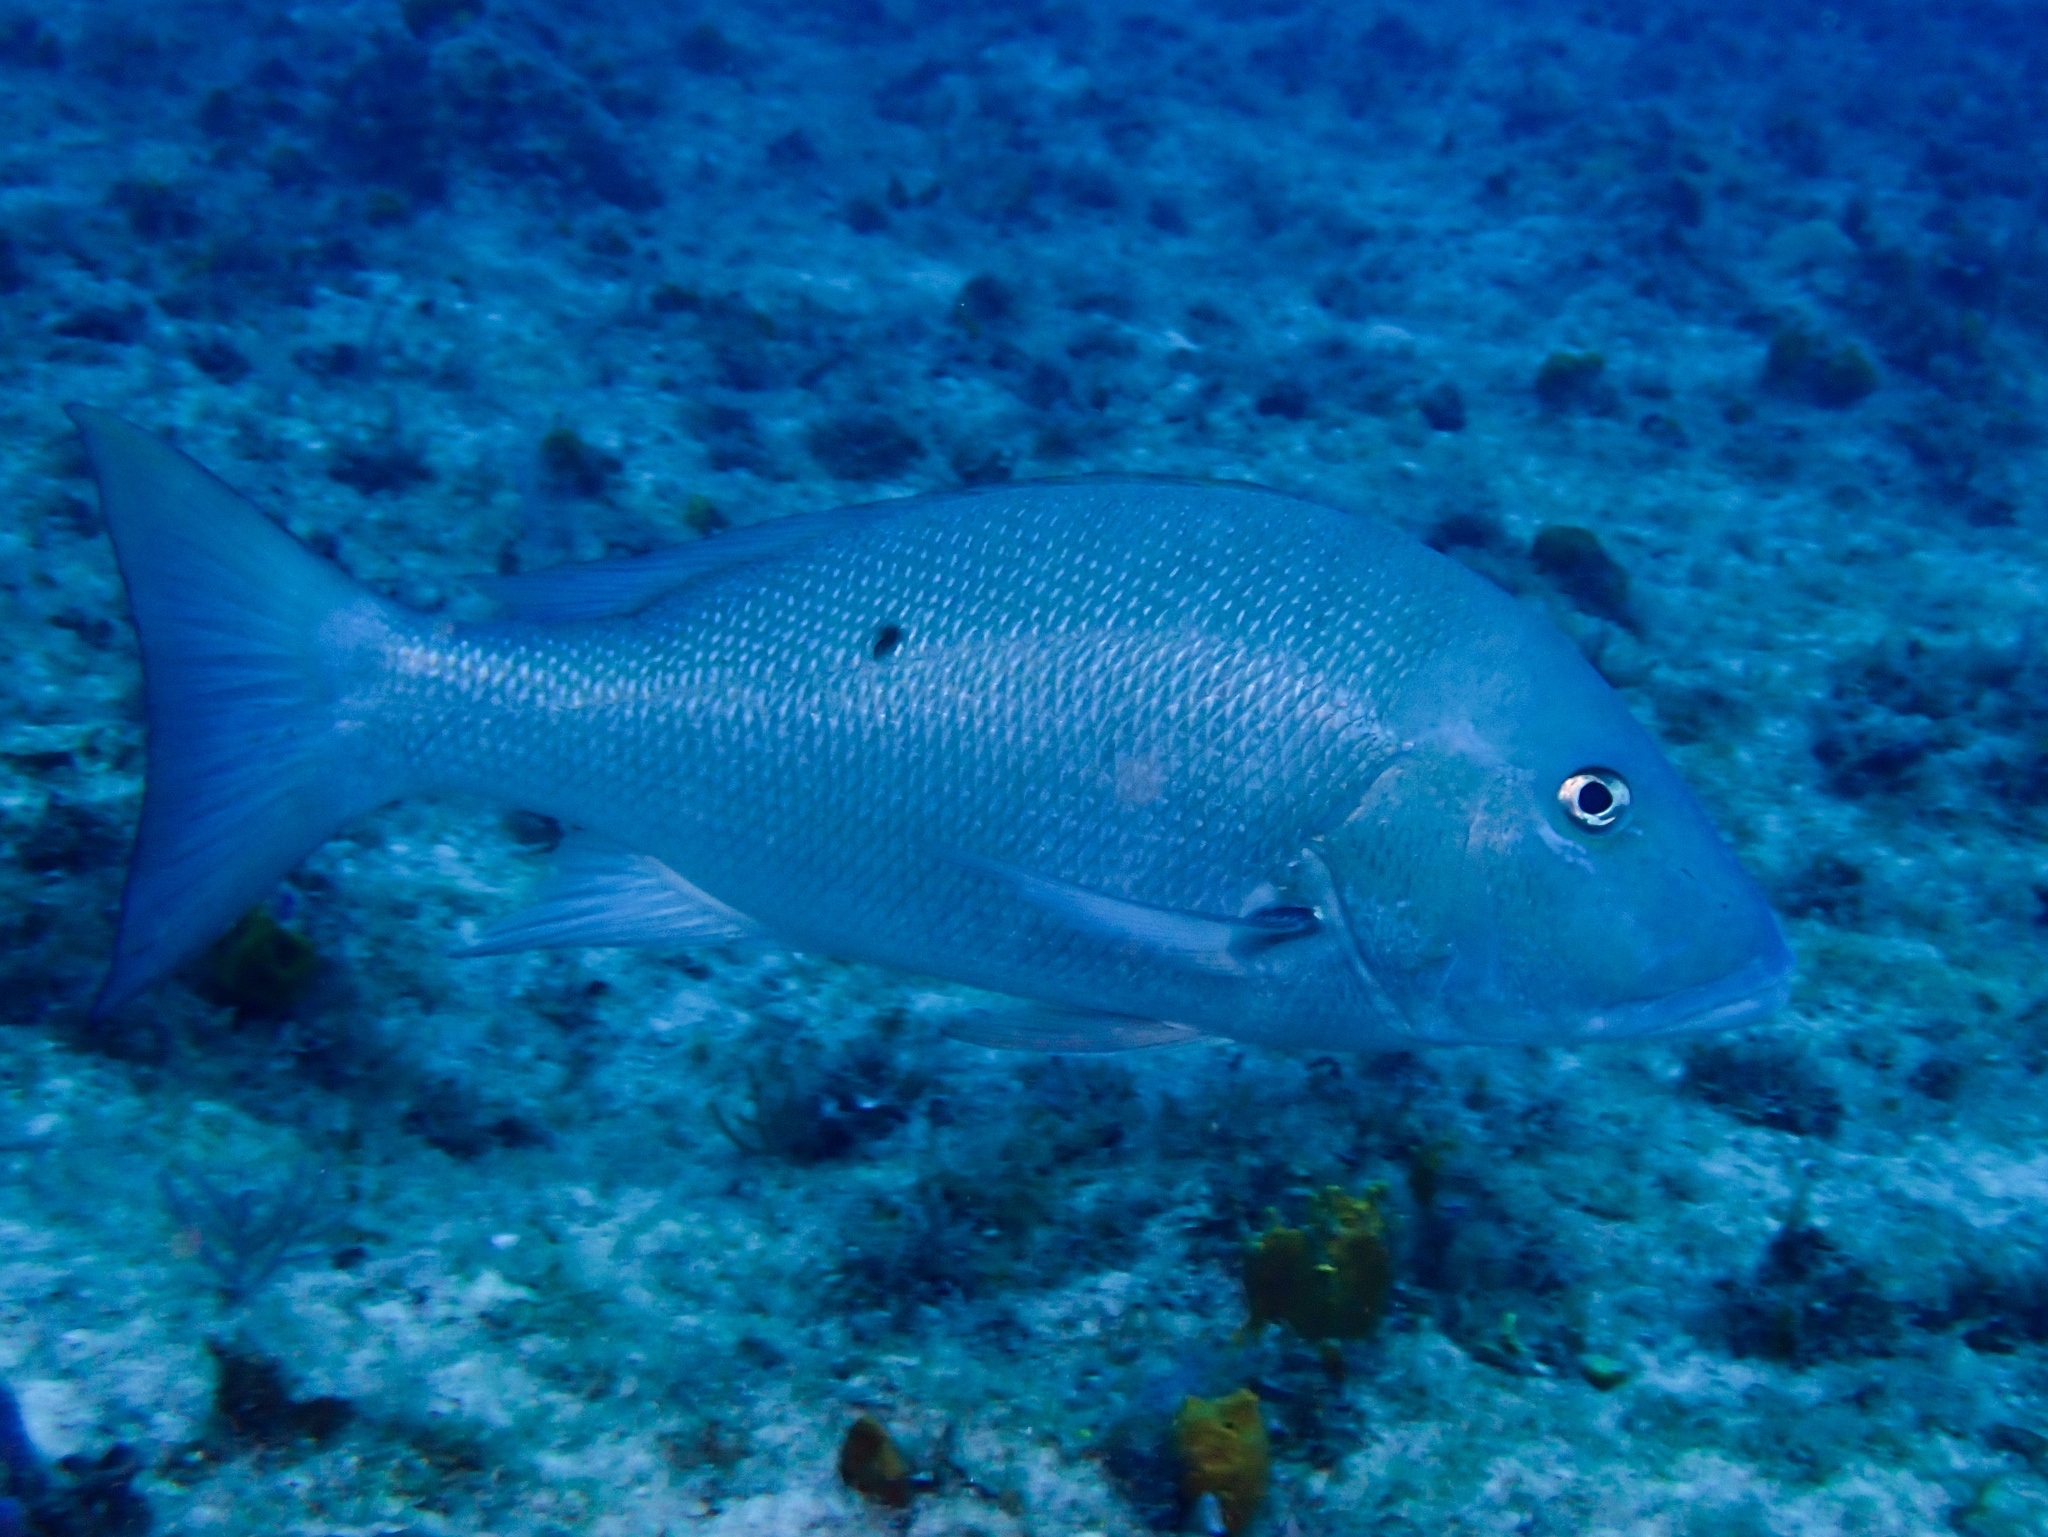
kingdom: Animalia
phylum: Chordata
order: Perciformes
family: Lutjanidae
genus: Lutjanus
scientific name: Lutjanus analis
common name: Mutton snapper
